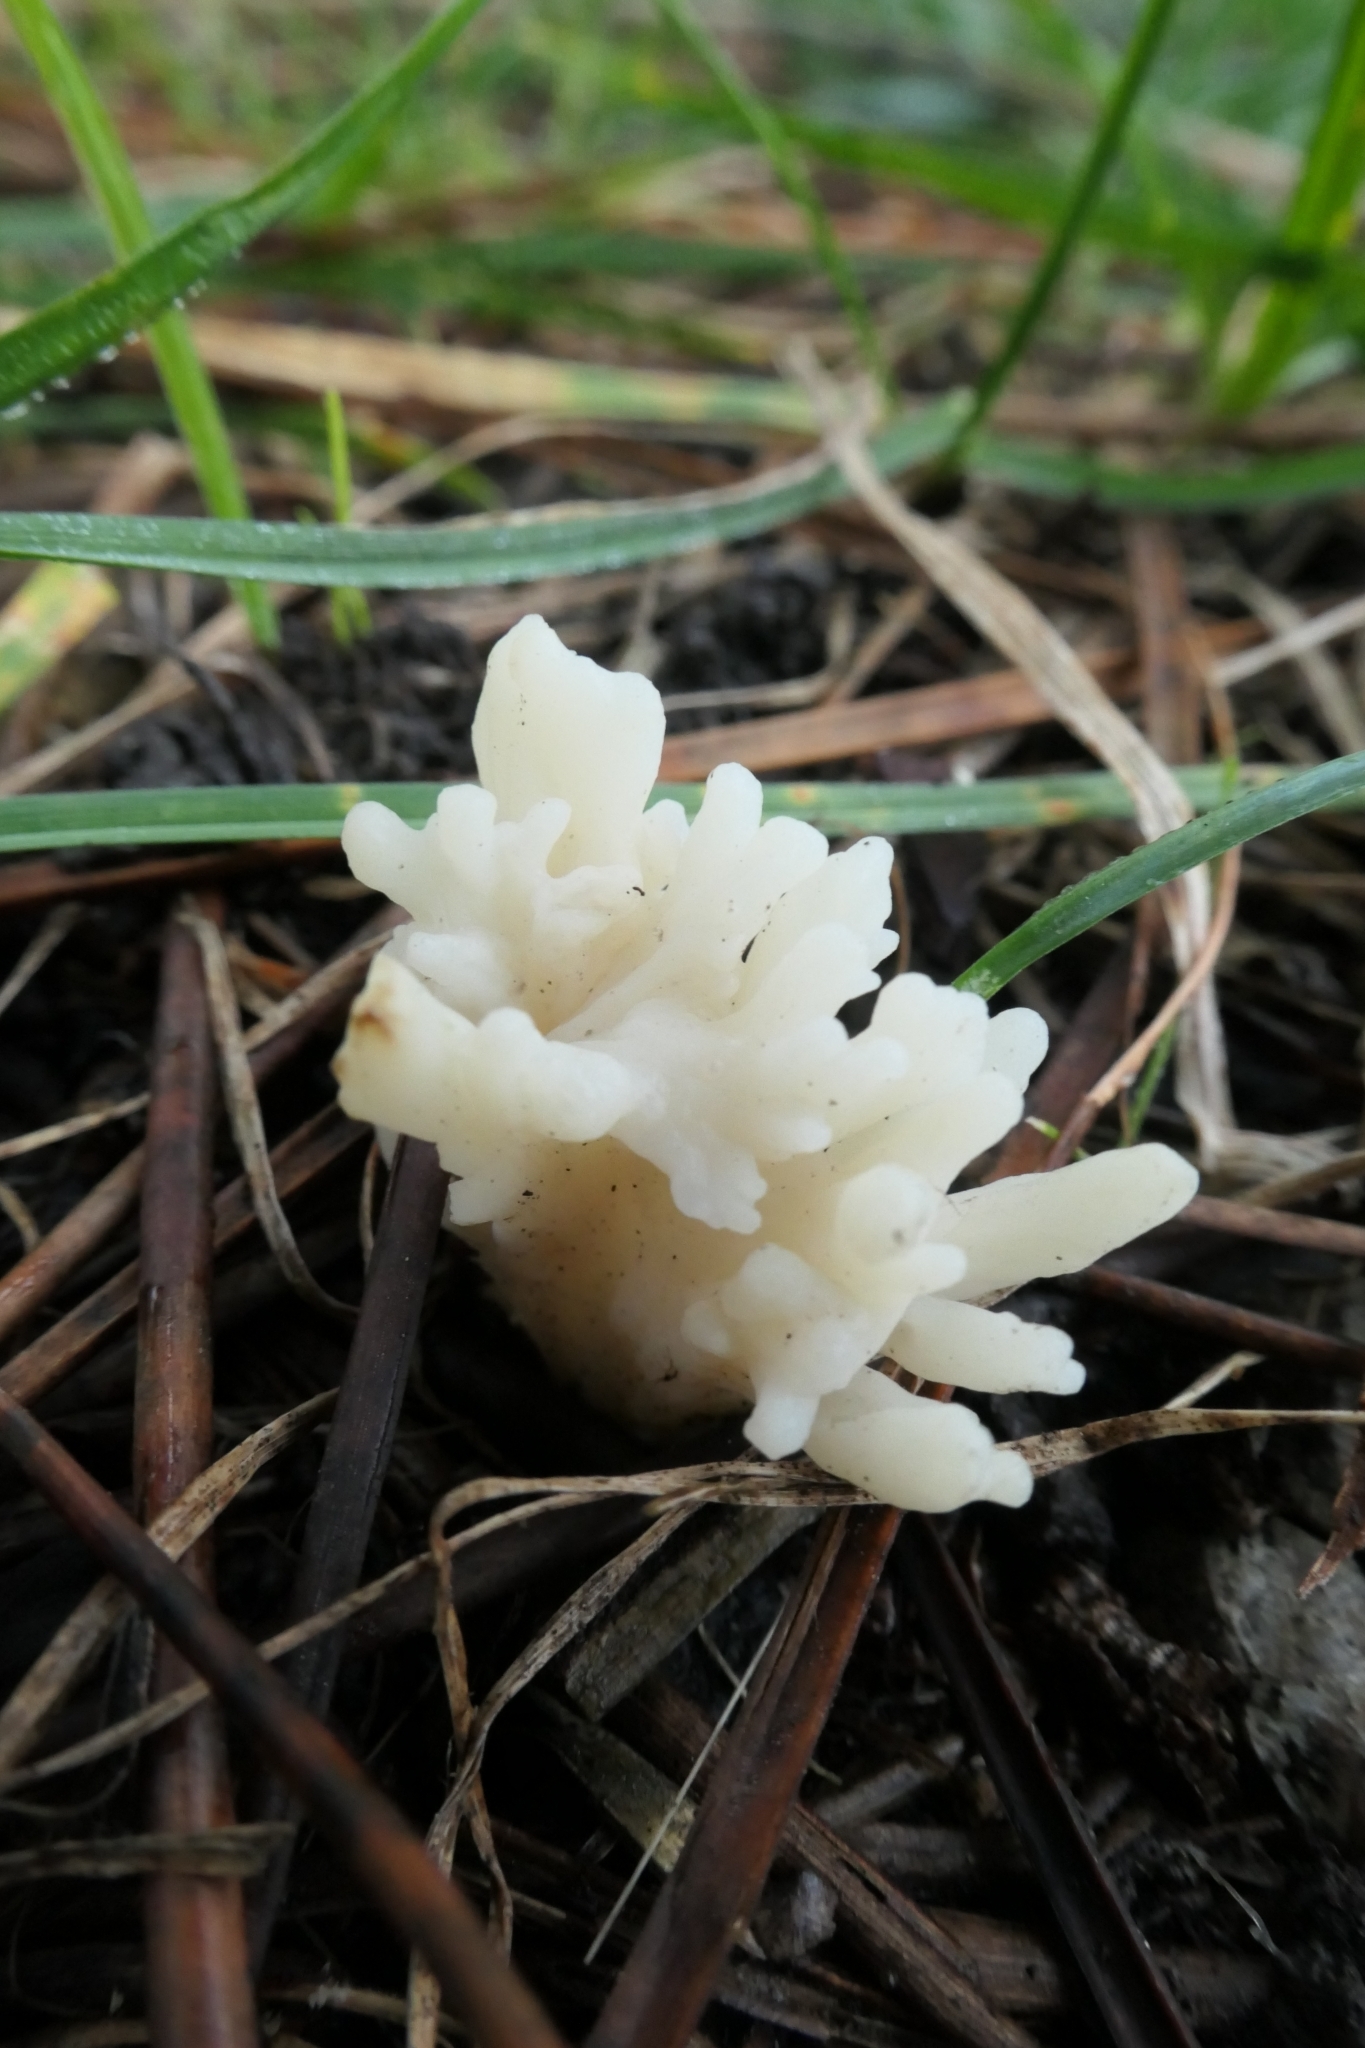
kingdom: Fungi
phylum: Basidiomycota
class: Agaricomycetes
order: Cantharellales
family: Hydnaceae
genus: Clavulina
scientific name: Clavulina rugosa
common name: Wrinkled club
